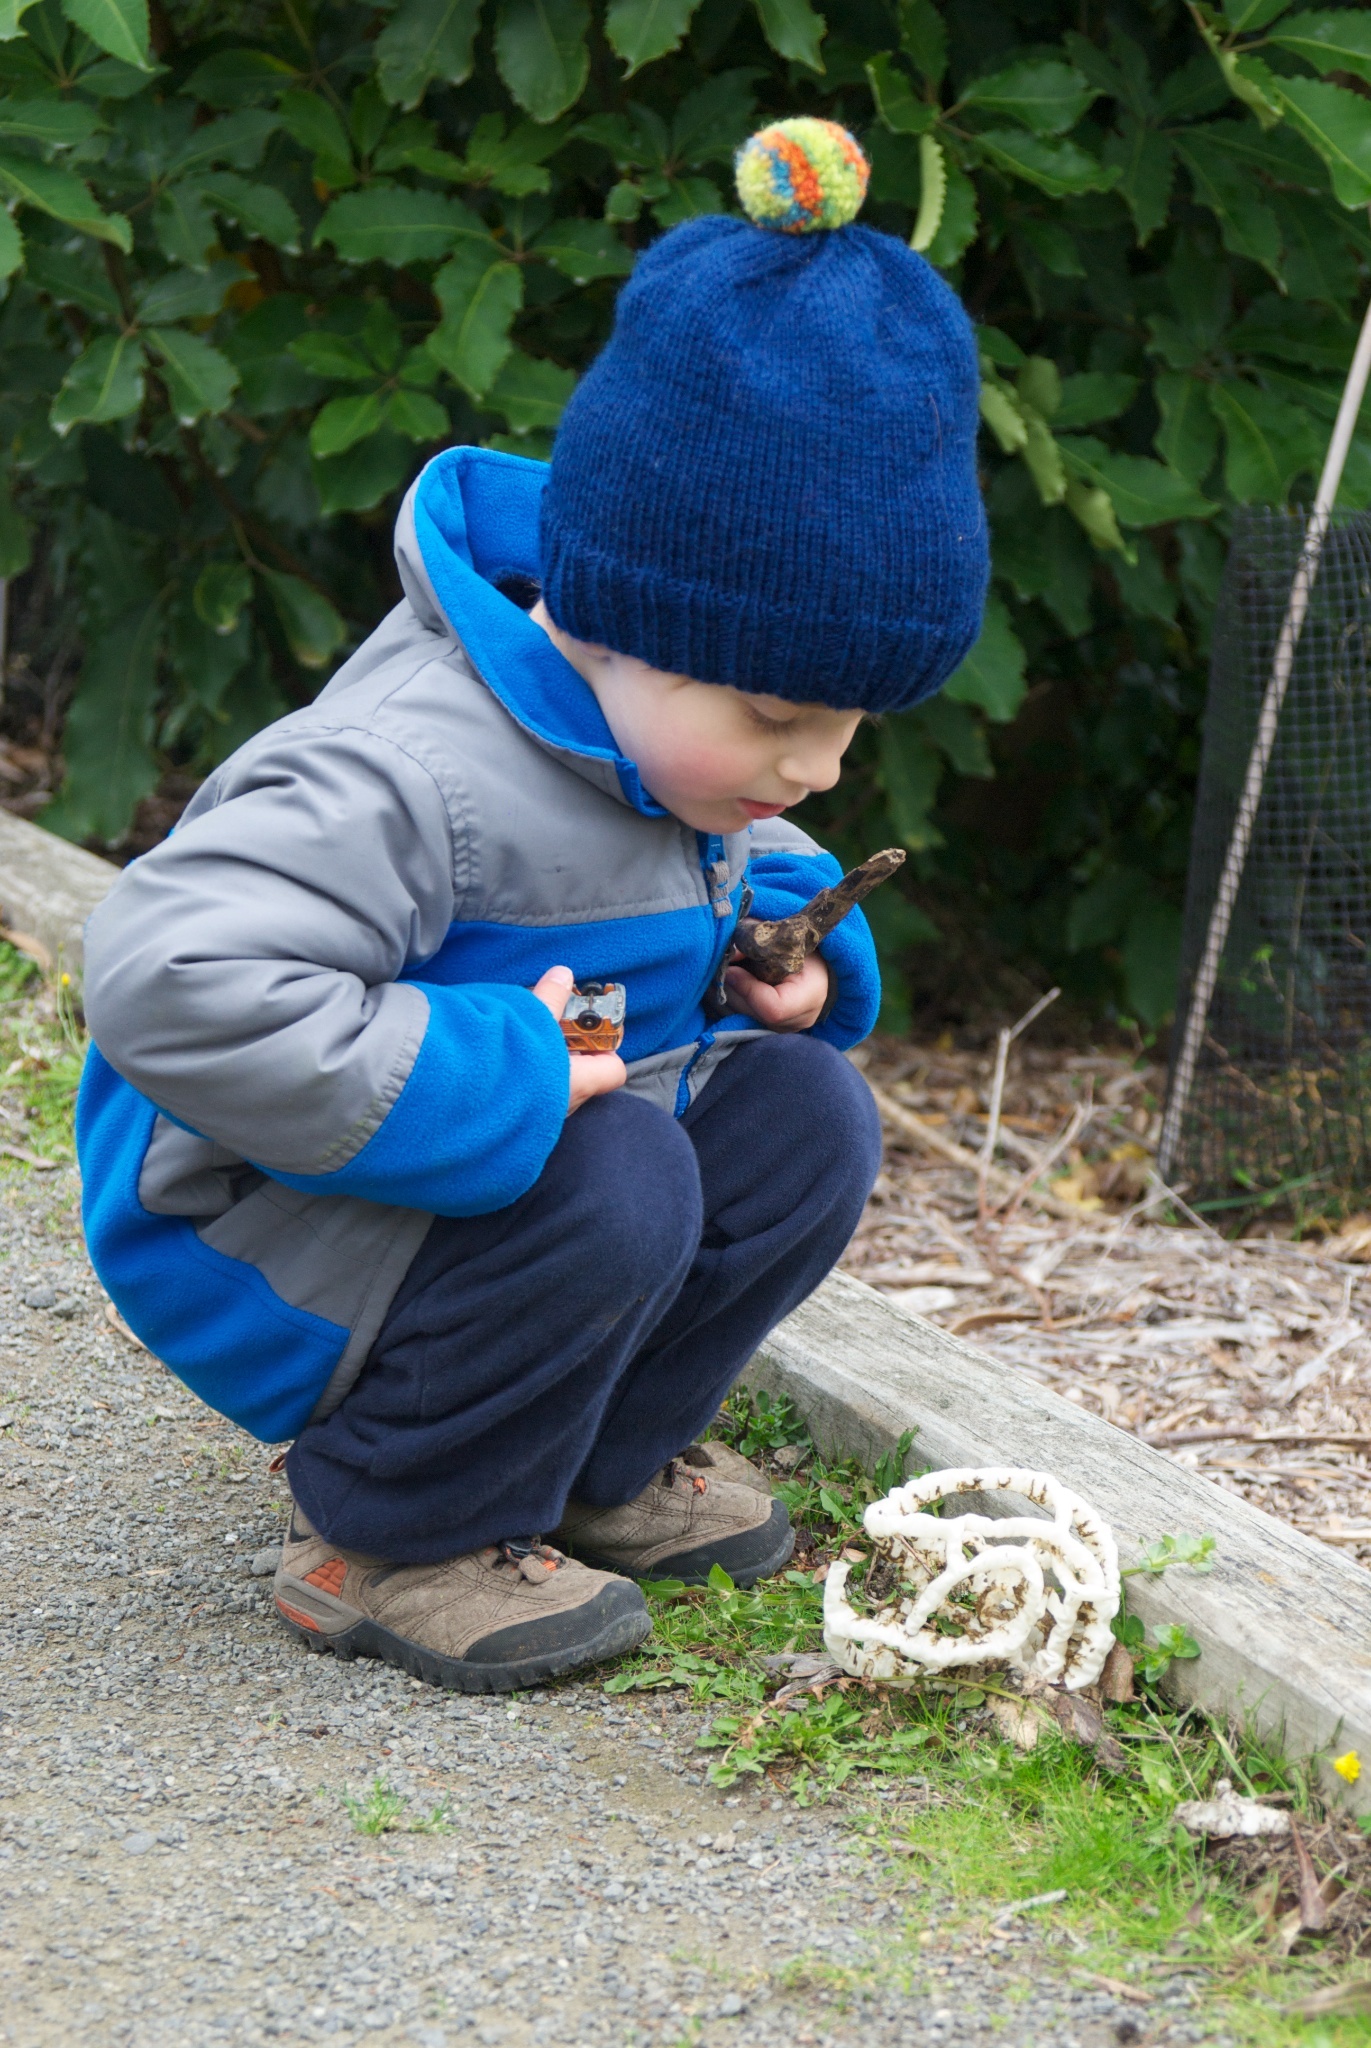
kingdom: Fungi
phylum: Basidiomycota
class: Agaricomycetes
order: Phallales
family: Phallaceae
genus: Ileodictyon
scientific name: Ileodictyon cibarium
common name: Basket fungus
